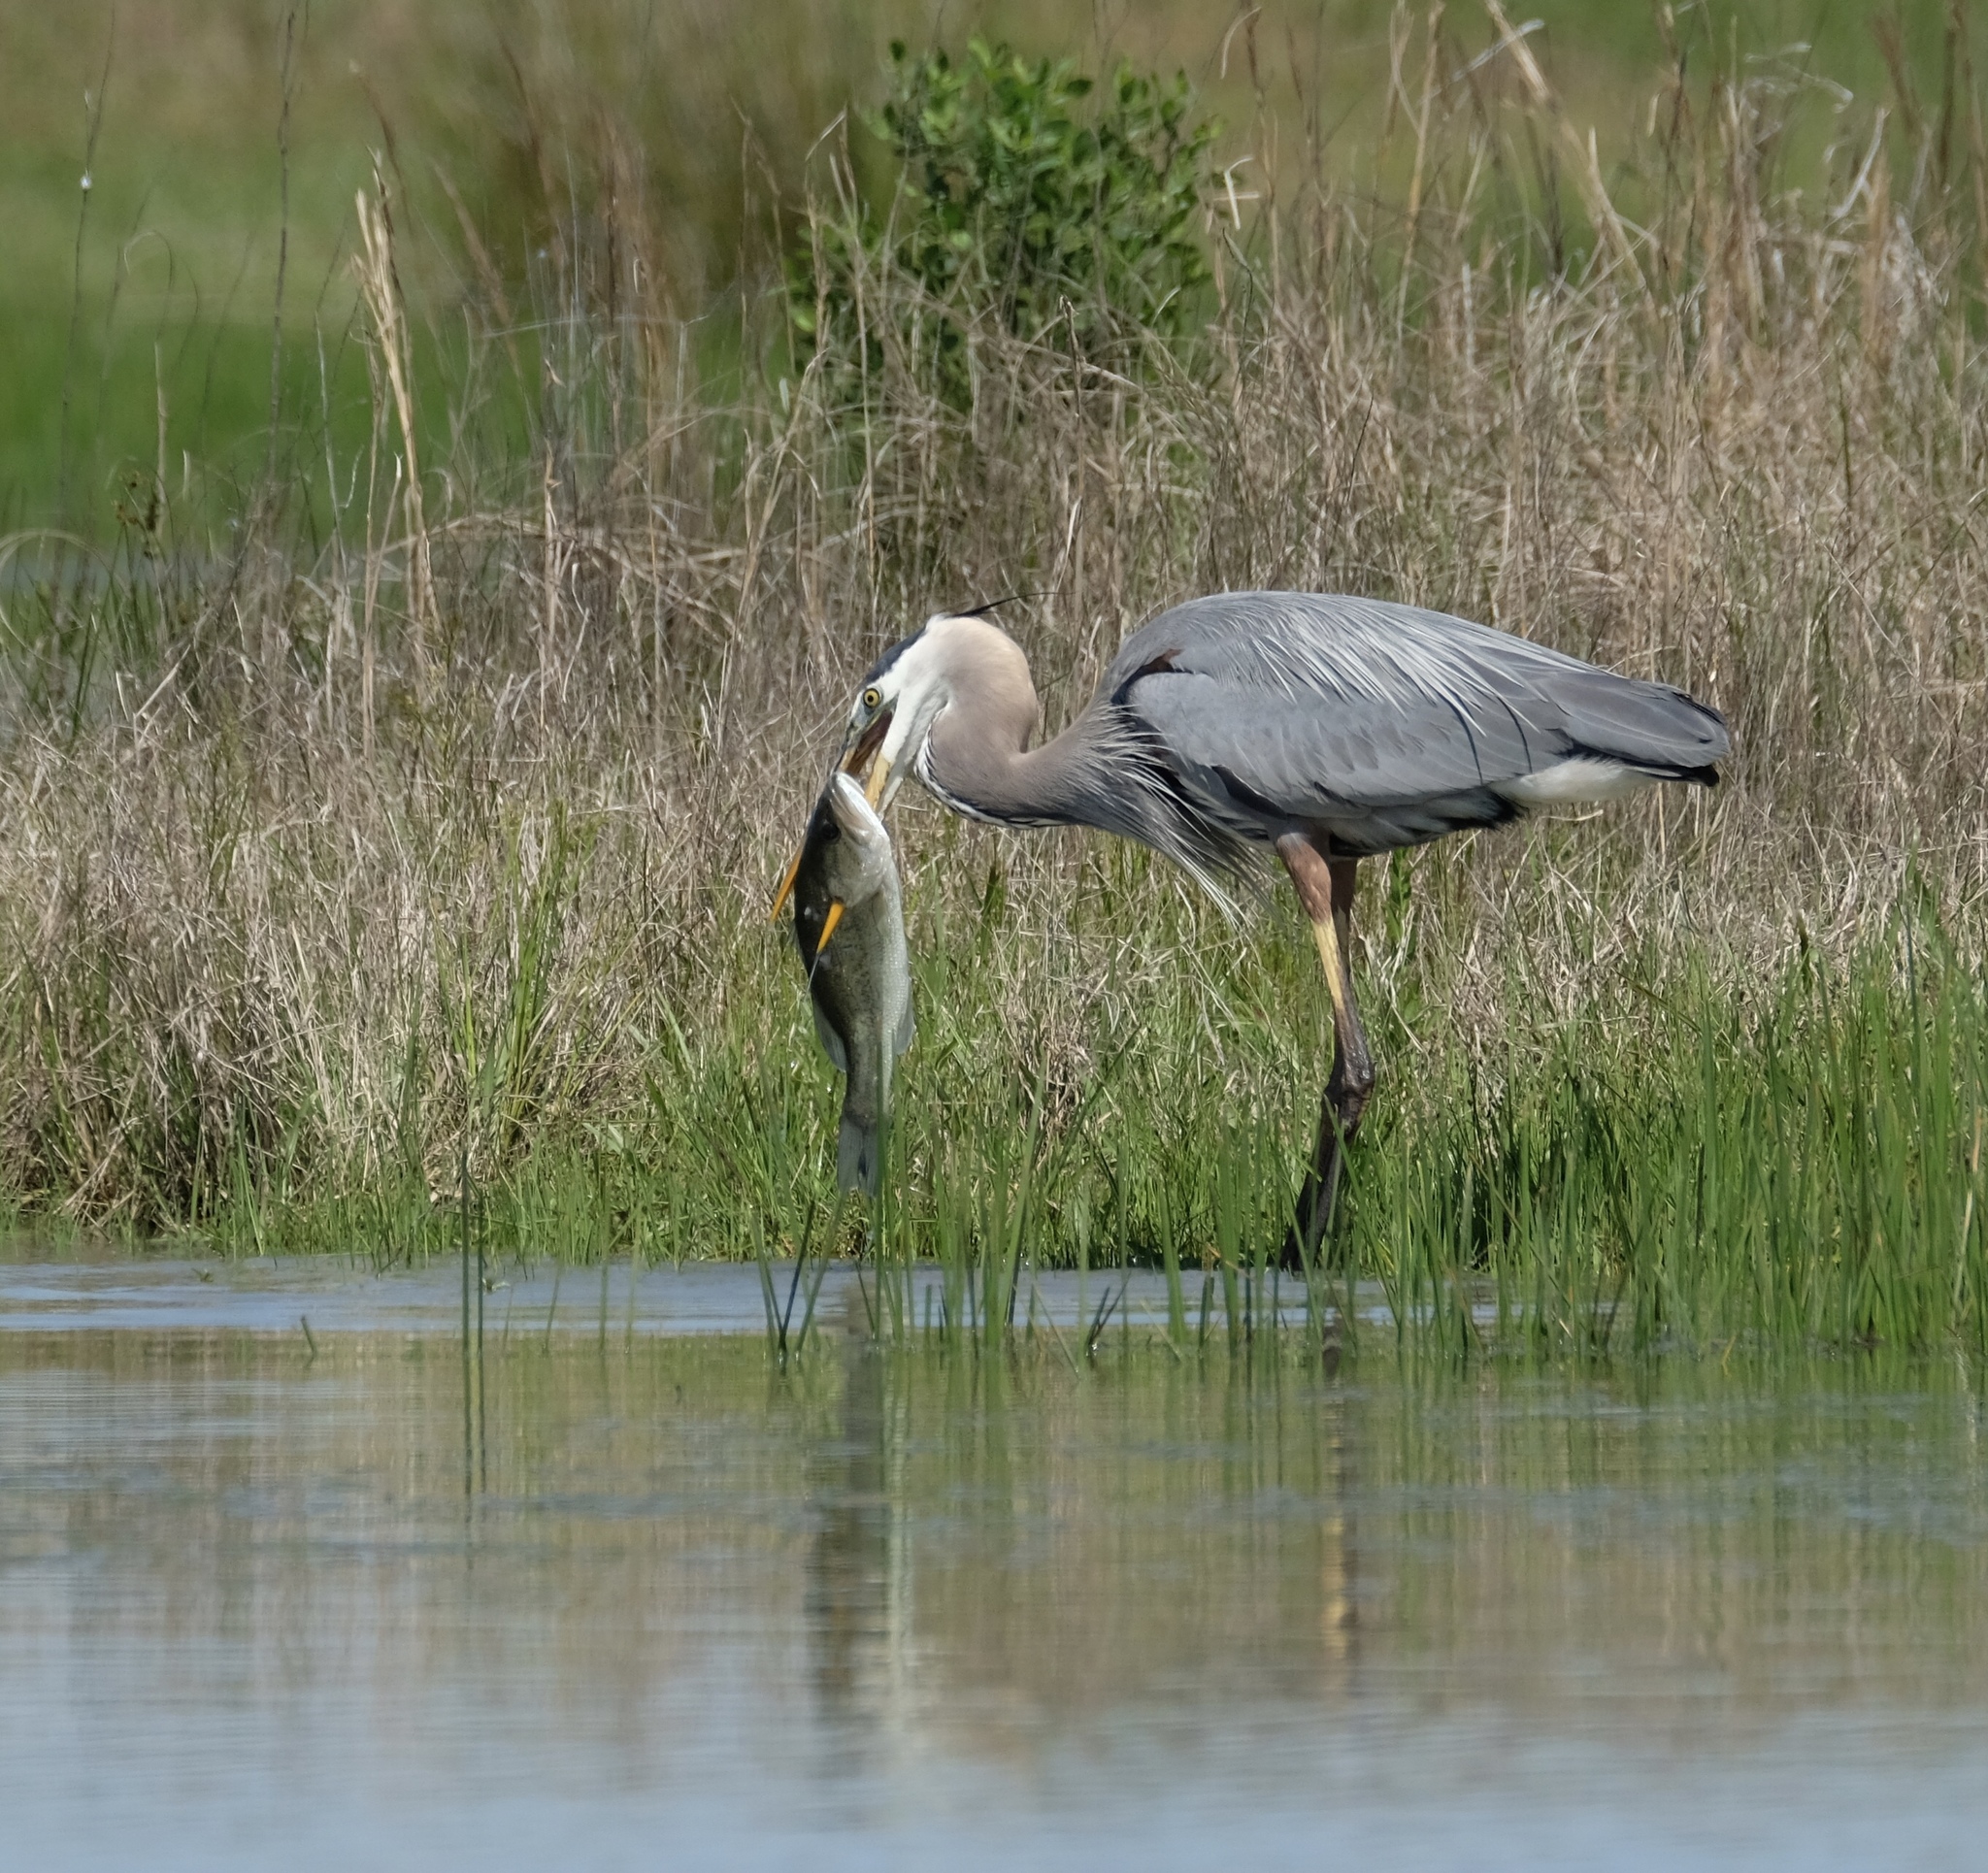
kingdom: Animalia
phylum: Chordata
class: Aves
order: Pelecaniformes
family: Ardeidae
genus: Ardea
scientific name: Ardea herodias
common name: Great blue heron
